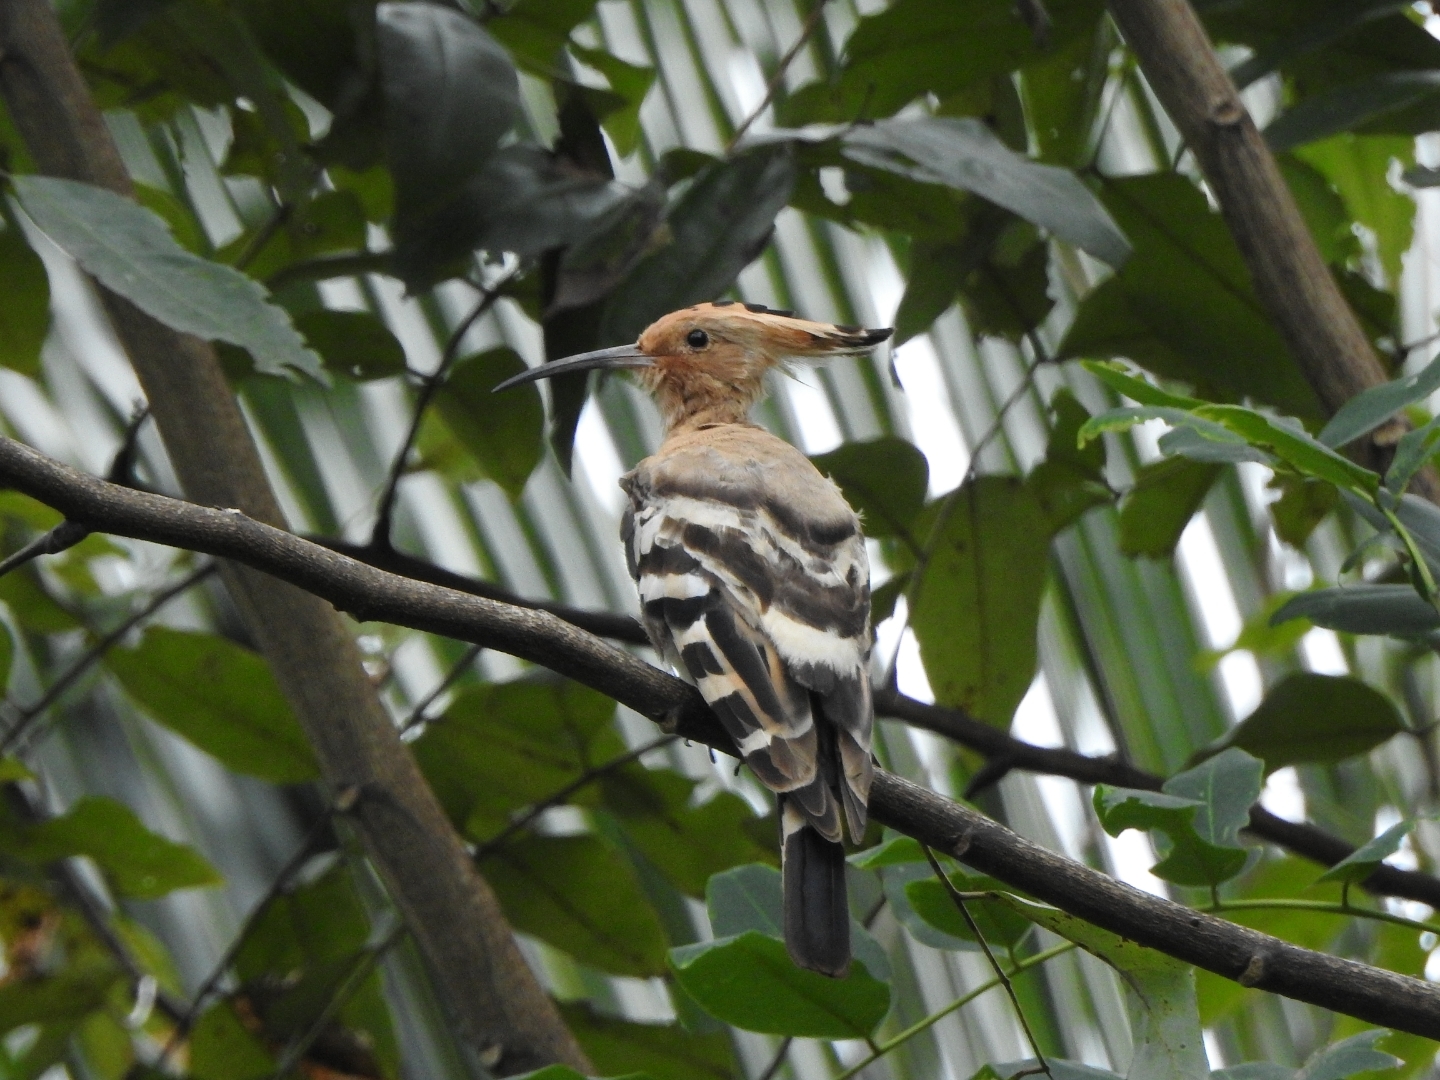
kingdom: Animalia
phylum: Chordata
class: Aves
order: Bucerotiformes
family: Upupidae
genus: Upupa
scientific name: Upupa epops
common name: Eurasian hoopoe
